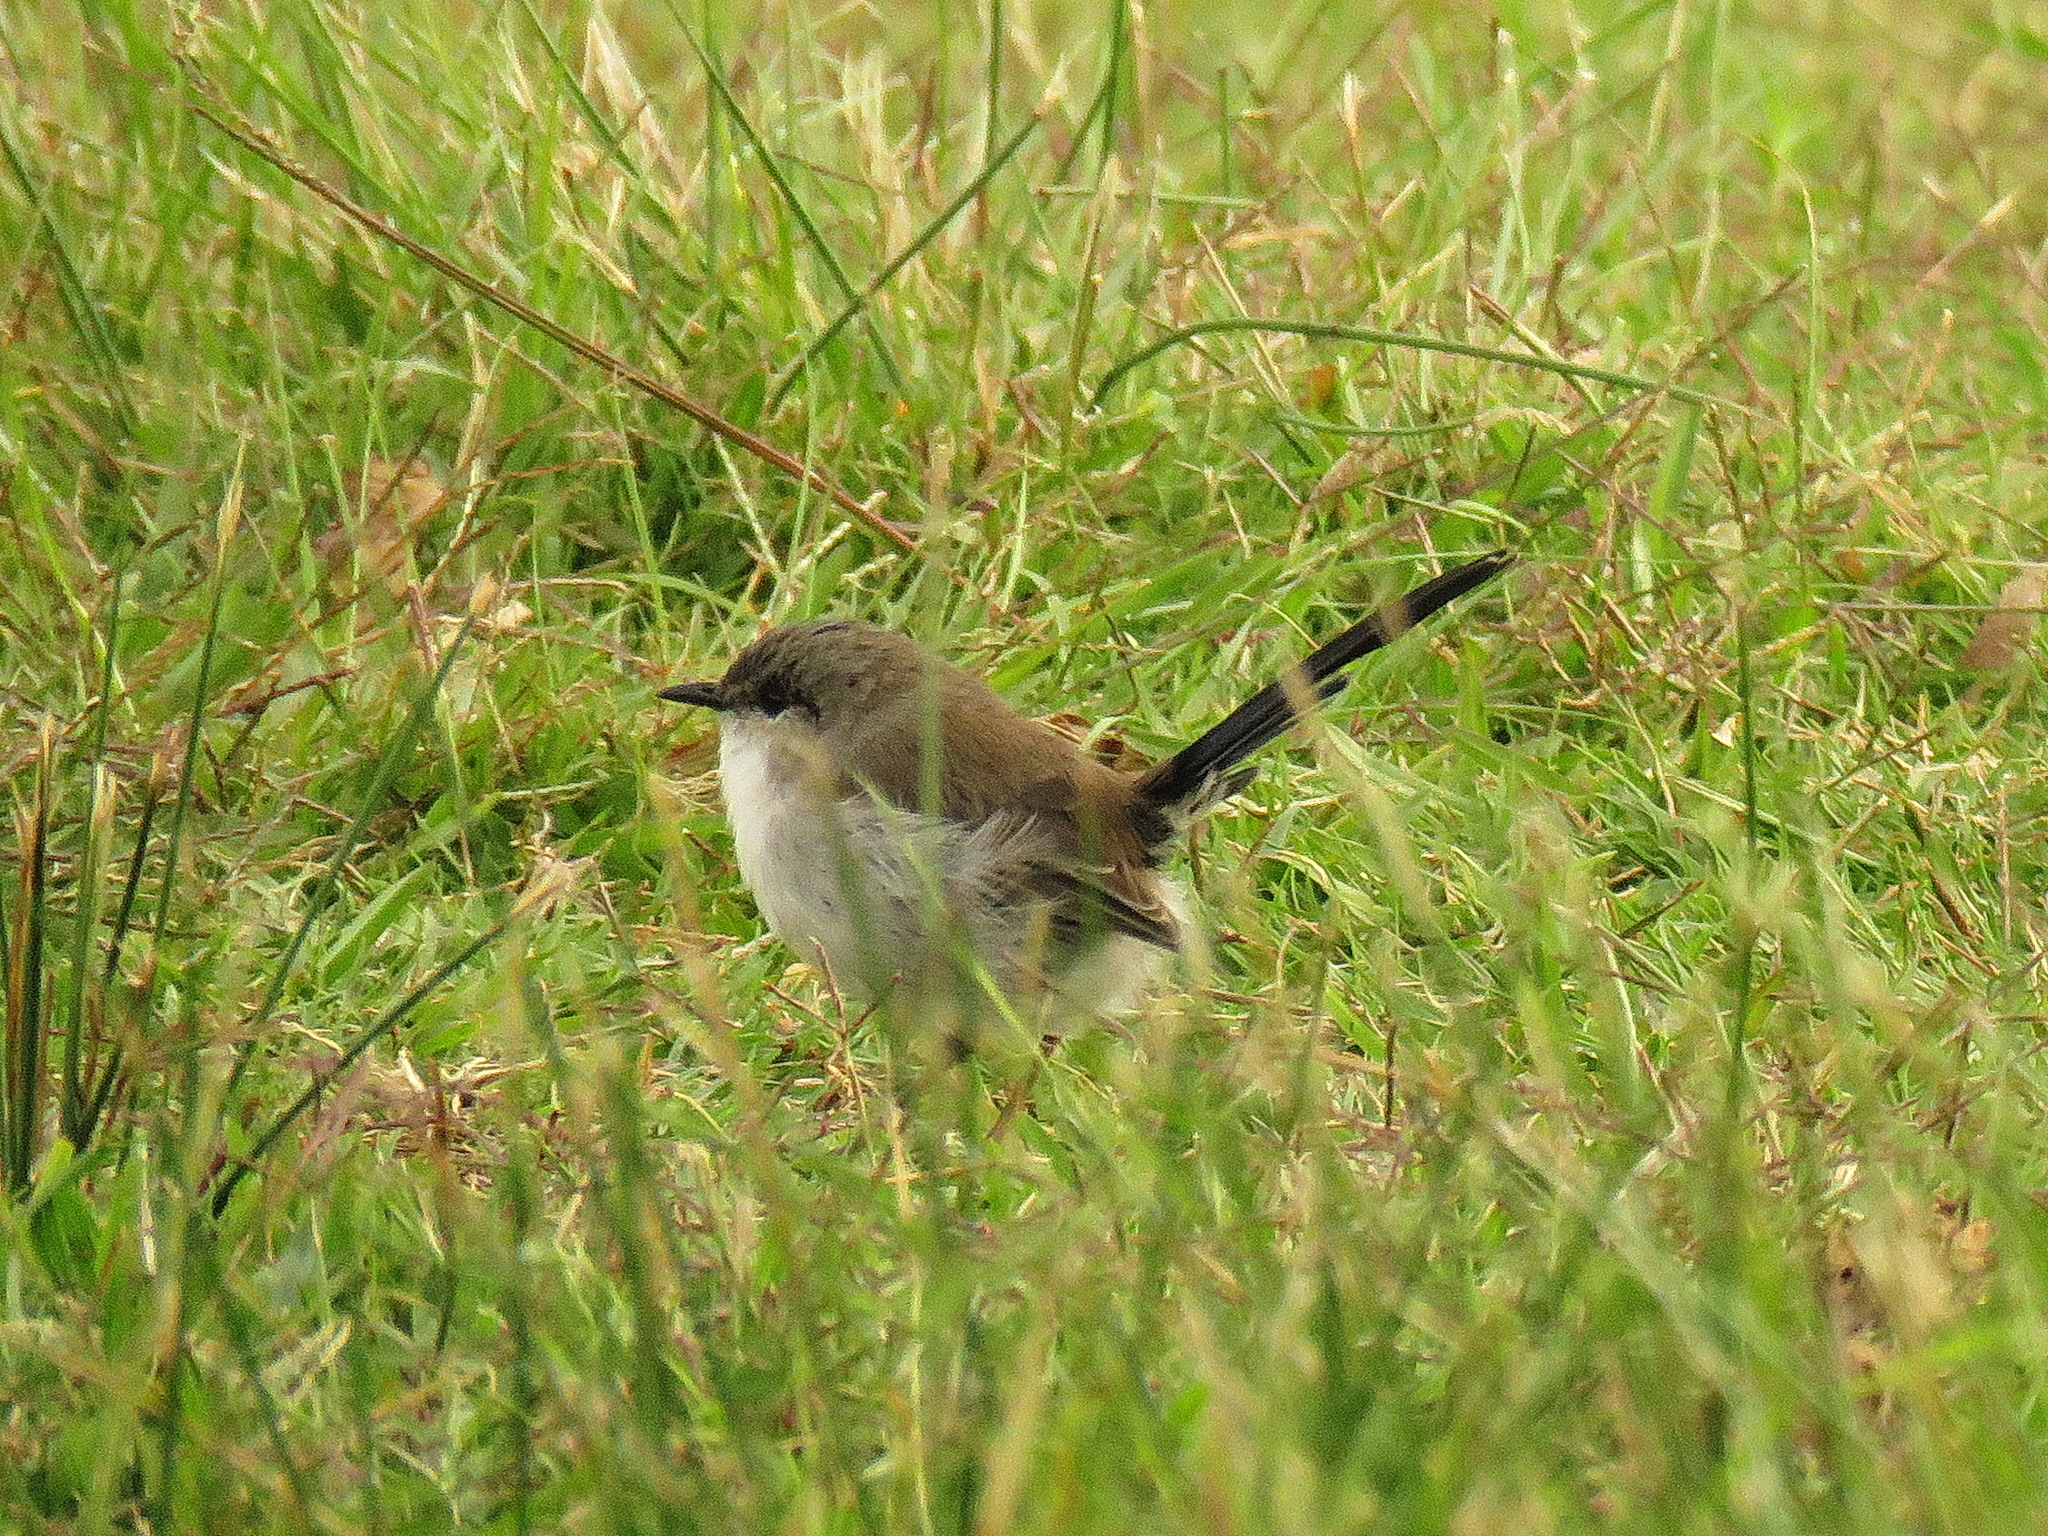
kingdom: Animalia
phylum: Chordata
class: Aves
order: Passeriformes
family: Maluridae
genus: Malurus
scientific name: Malurus cyaneus
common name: Superb fairywren
